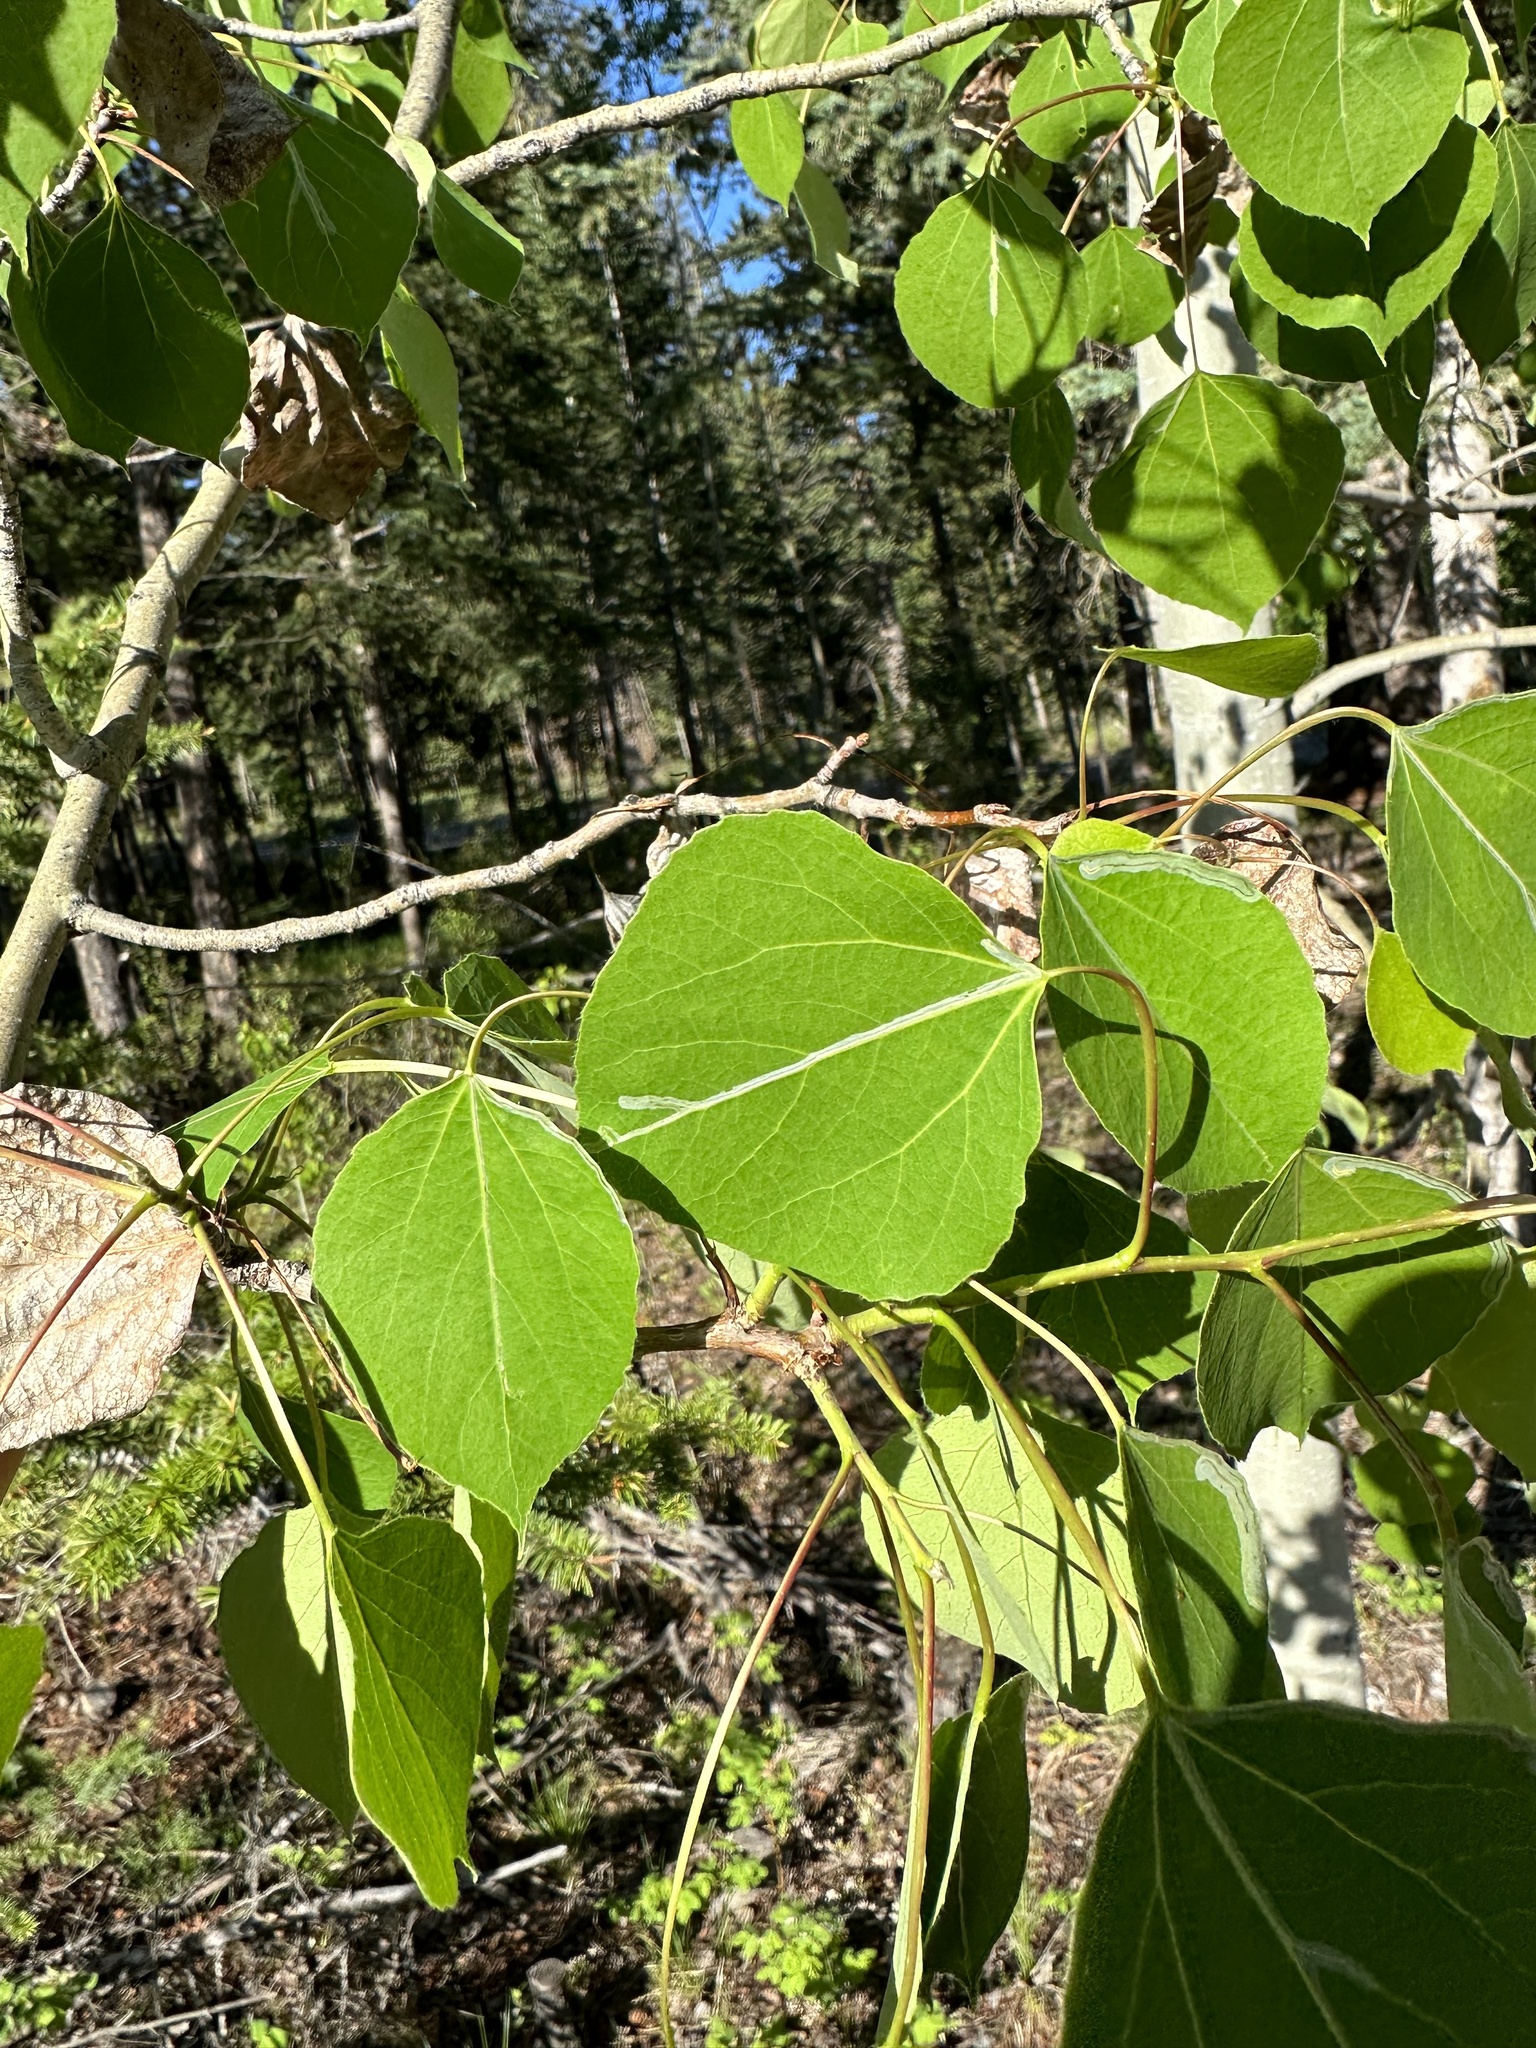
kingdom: Plantae
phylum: Tracheophyta
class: Magnoliopsida
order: Malpighiales
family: Salicaceae
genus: Populus
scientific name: Populus tremuloides
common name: Quaking aspen
